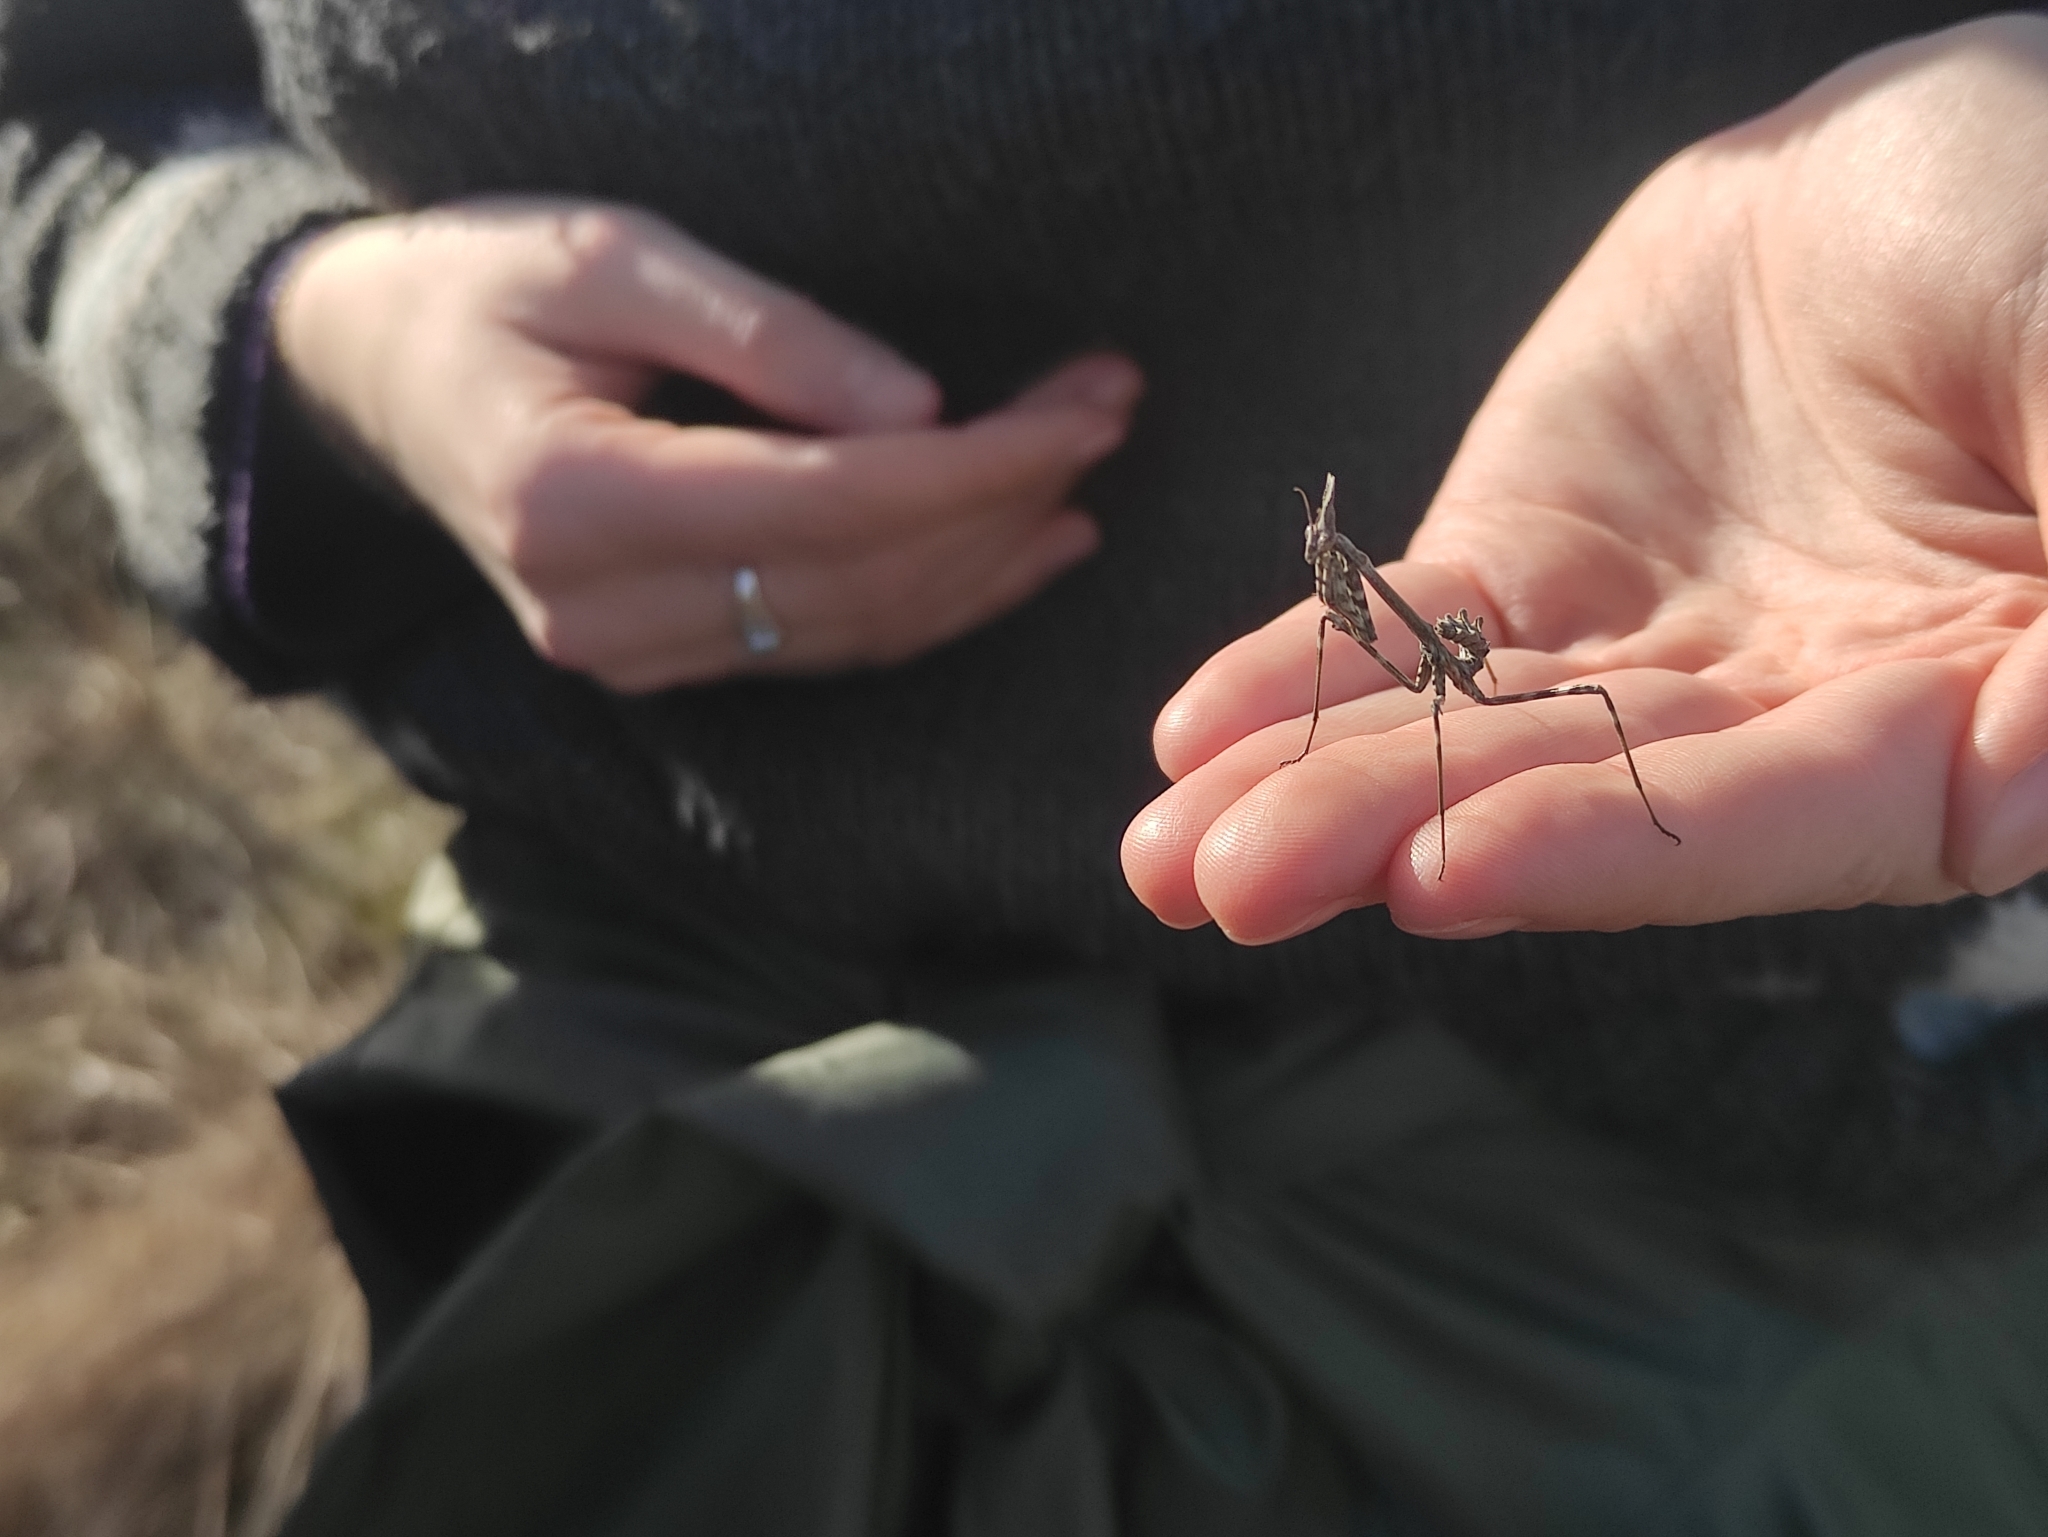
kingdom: Animalia
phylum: Arthropoda
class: Insecta
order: Mantodea
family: Empusidae
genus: Empusa
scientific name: Empusa pennata
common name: Conehead mantis
